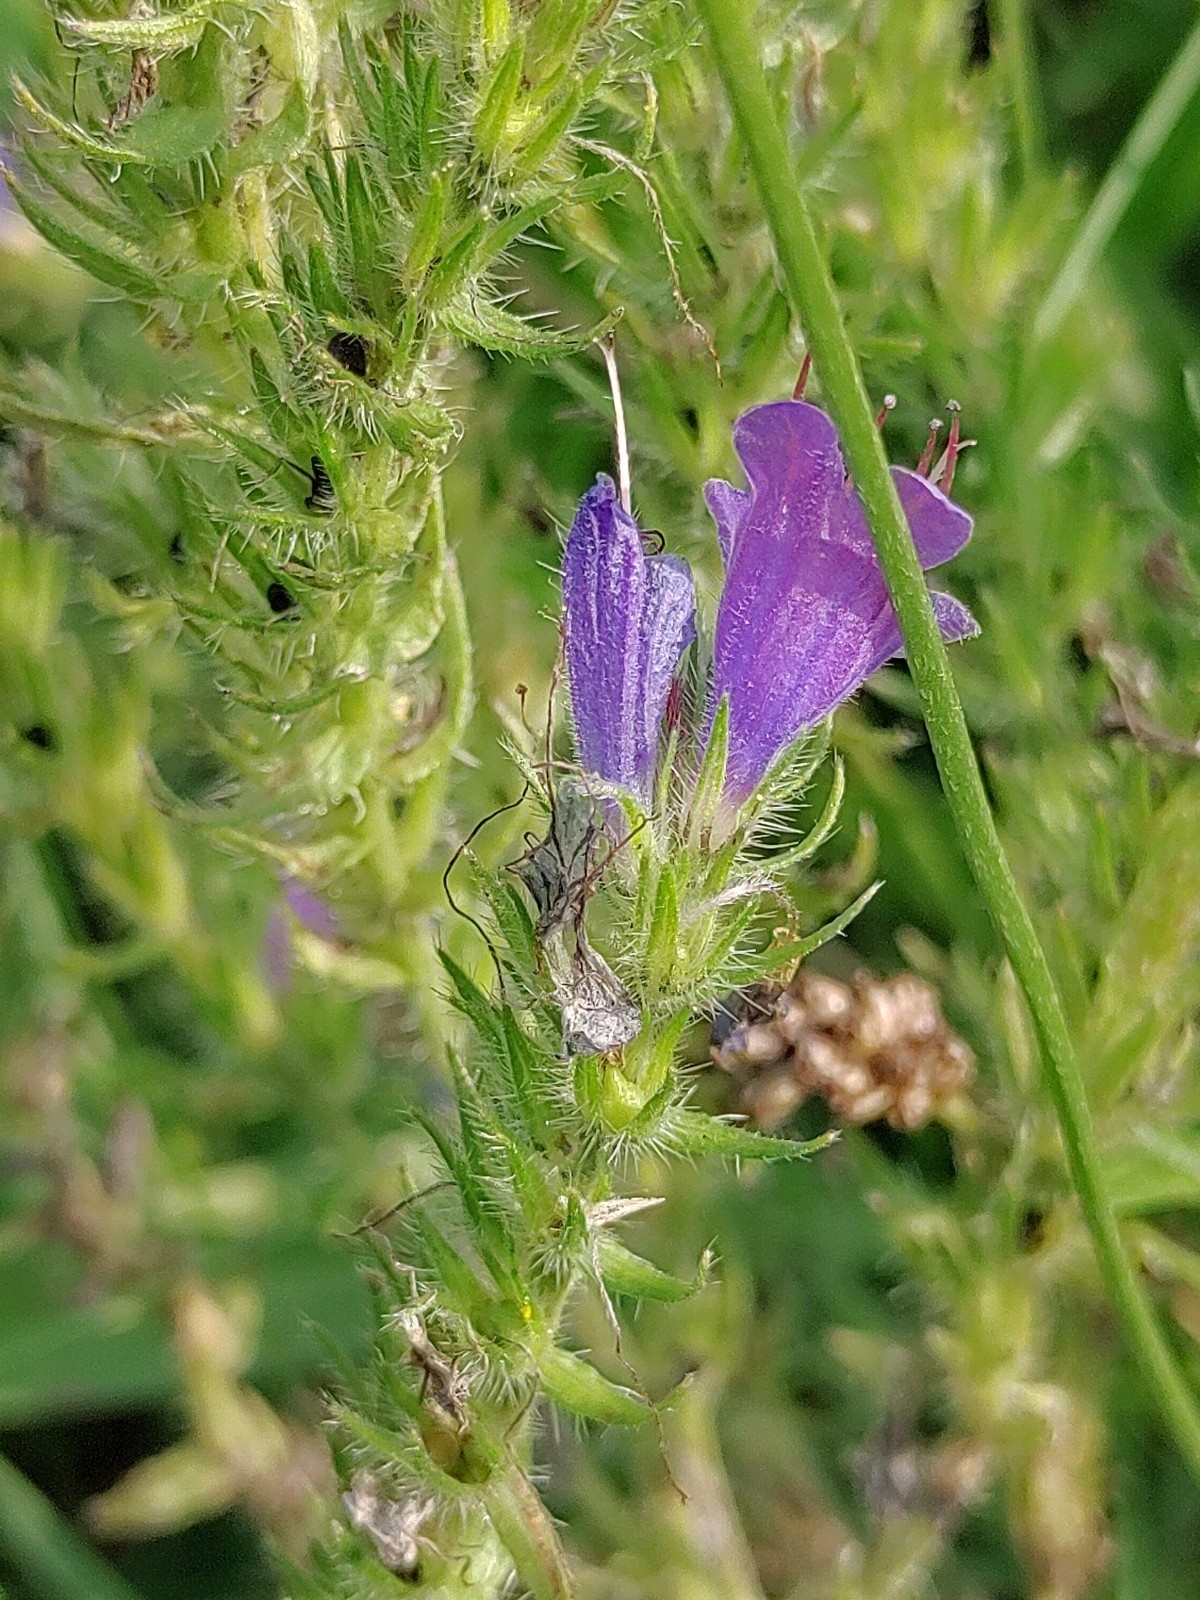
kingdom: Plantae
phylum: Tracheophyta
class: Magnoliopsida
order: Boraginales
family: Boraginaceae
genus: Echium
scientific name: Echium vulgare
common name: Common viper's bugloss
